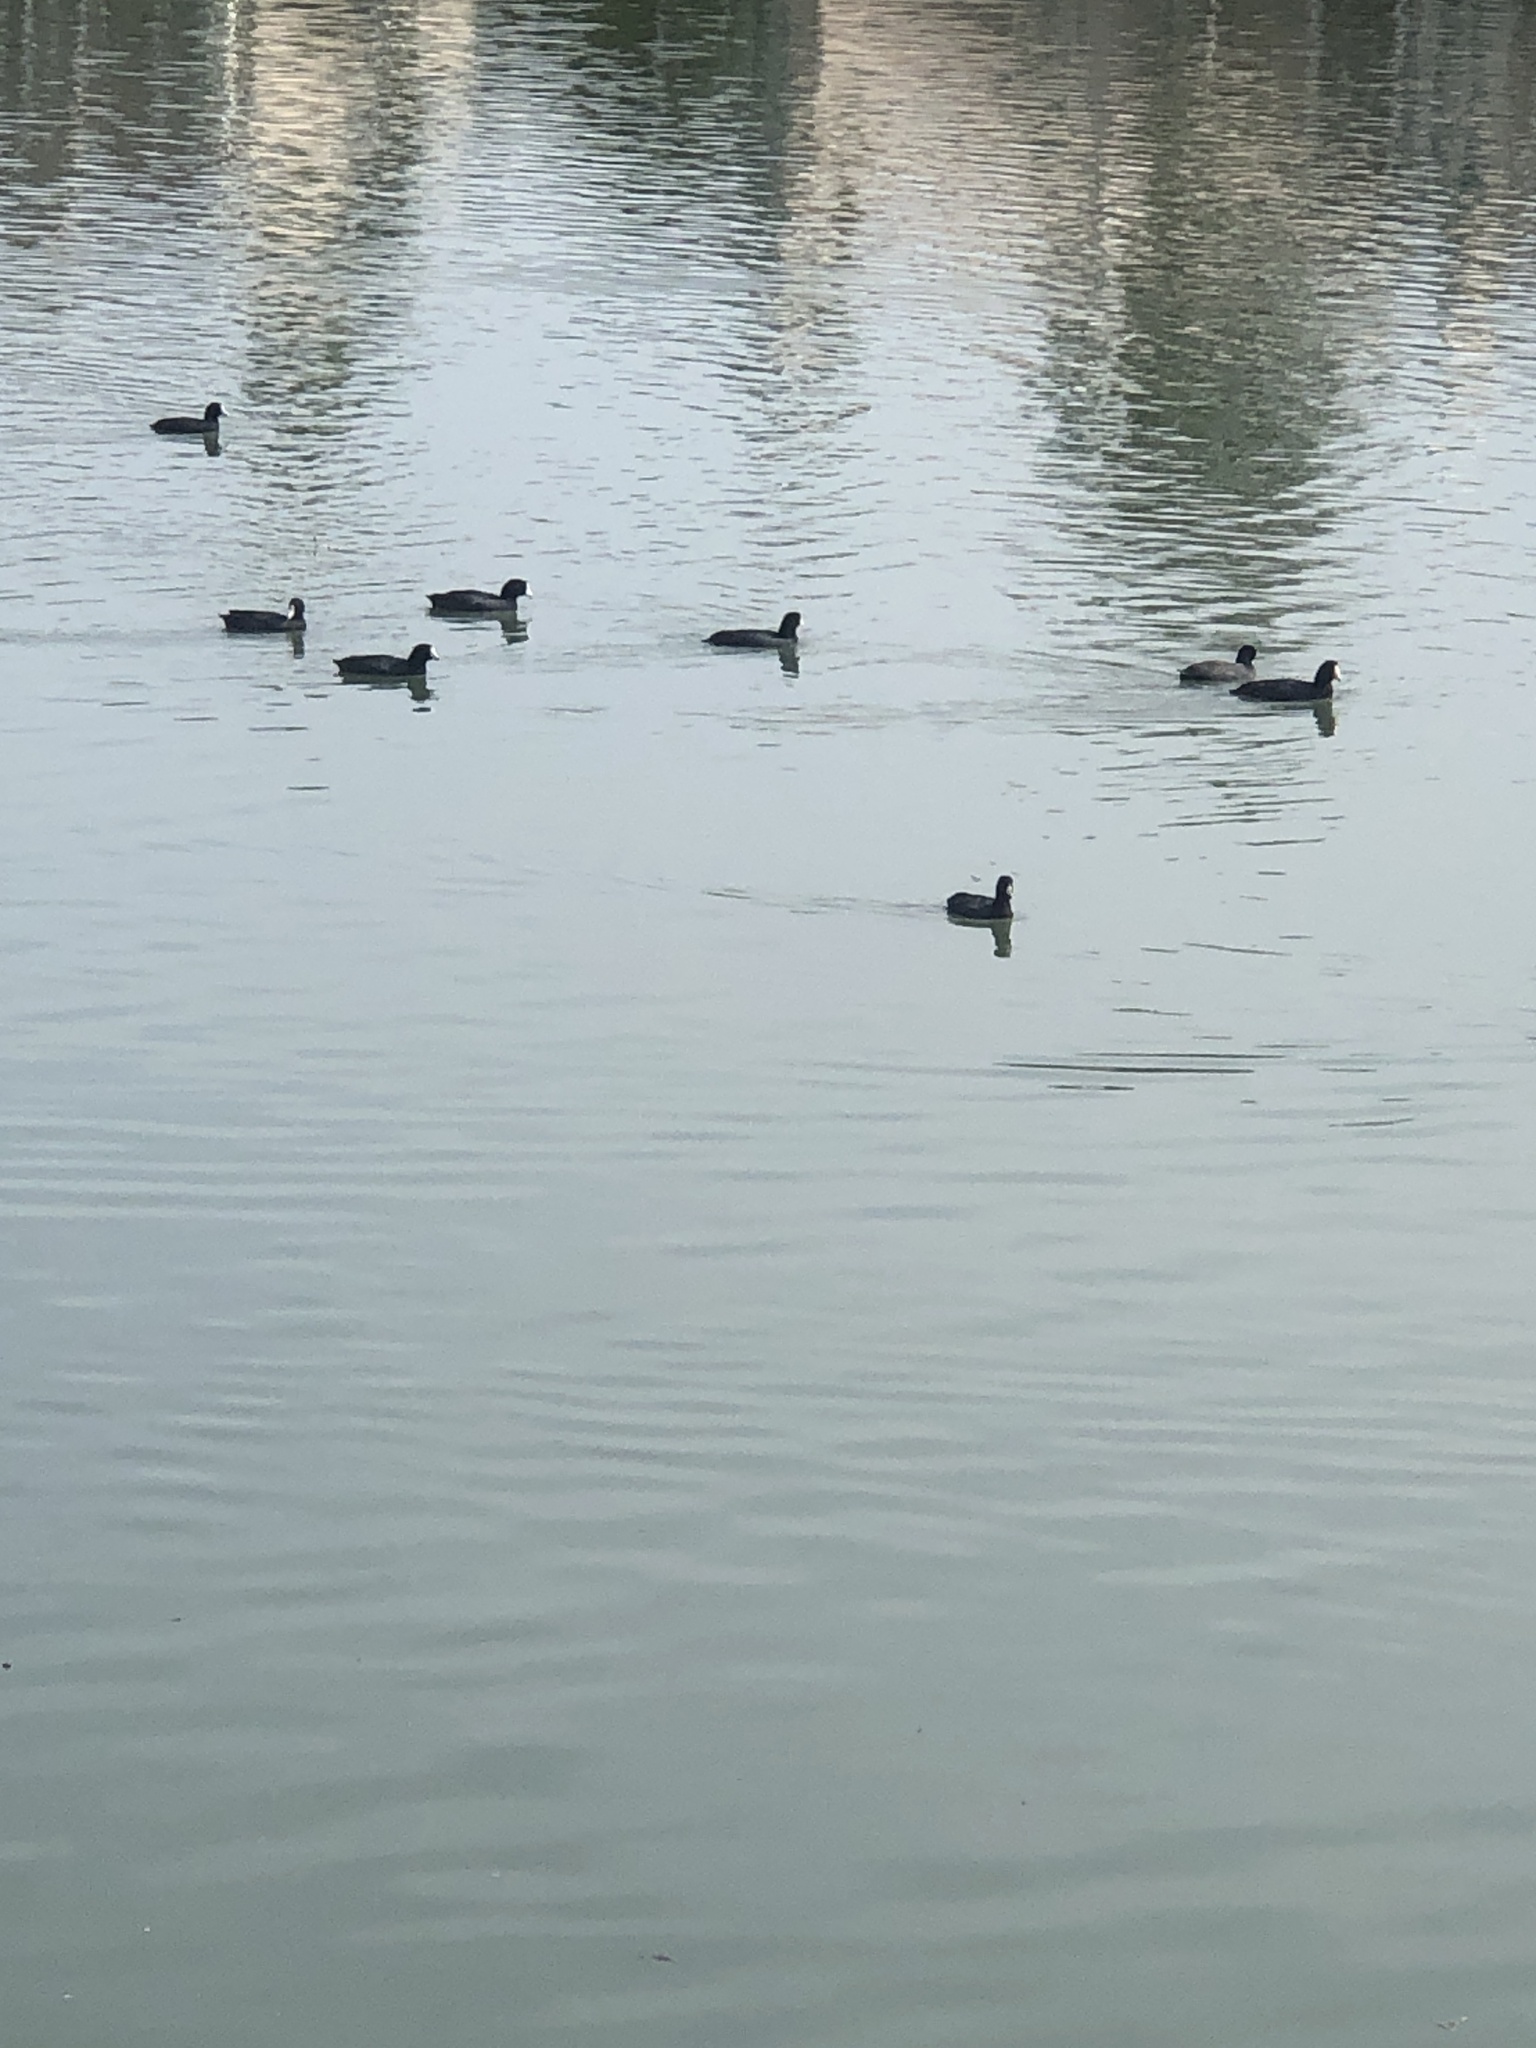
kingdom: Animalia
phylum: Chordata
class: Aves
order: Gruiformes
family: Rallidae
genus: Fulica
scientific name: Fulica americana
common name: American coot
